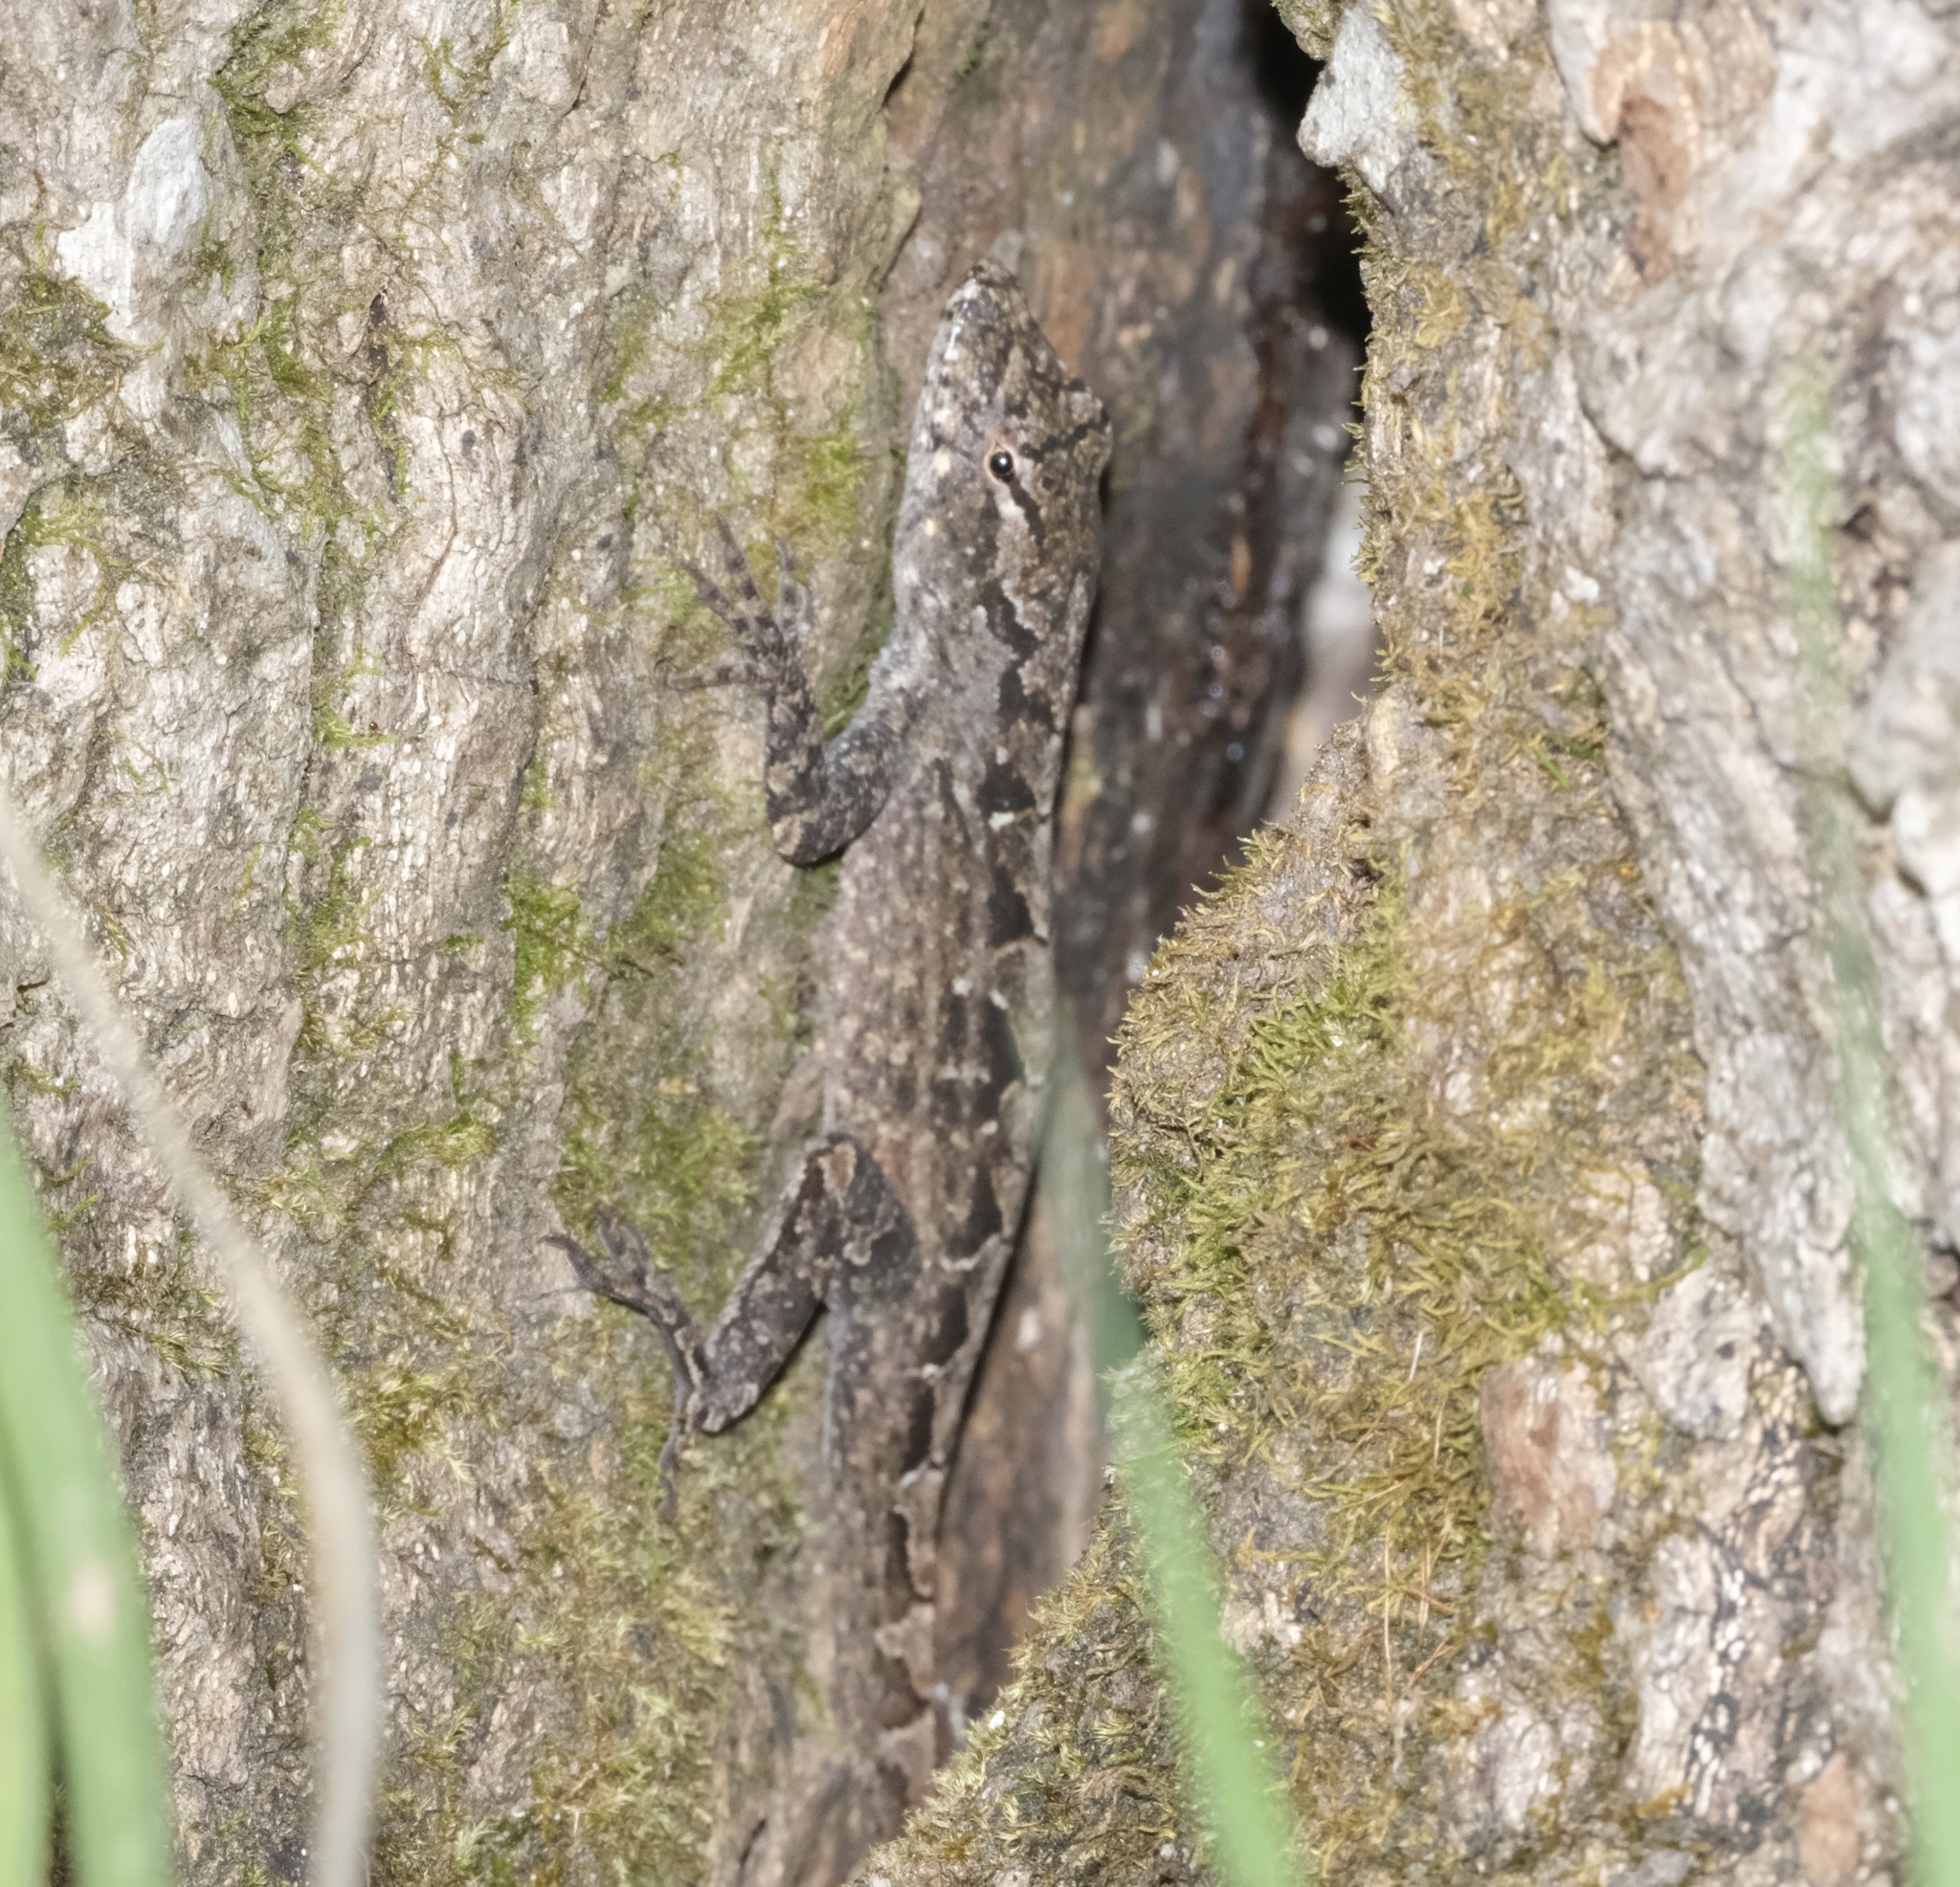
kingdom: Animalia
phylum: Chordata
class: Squamata
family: Dactyloidae
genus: Anolis
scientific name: Anolis sagrei
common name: Brown anole
